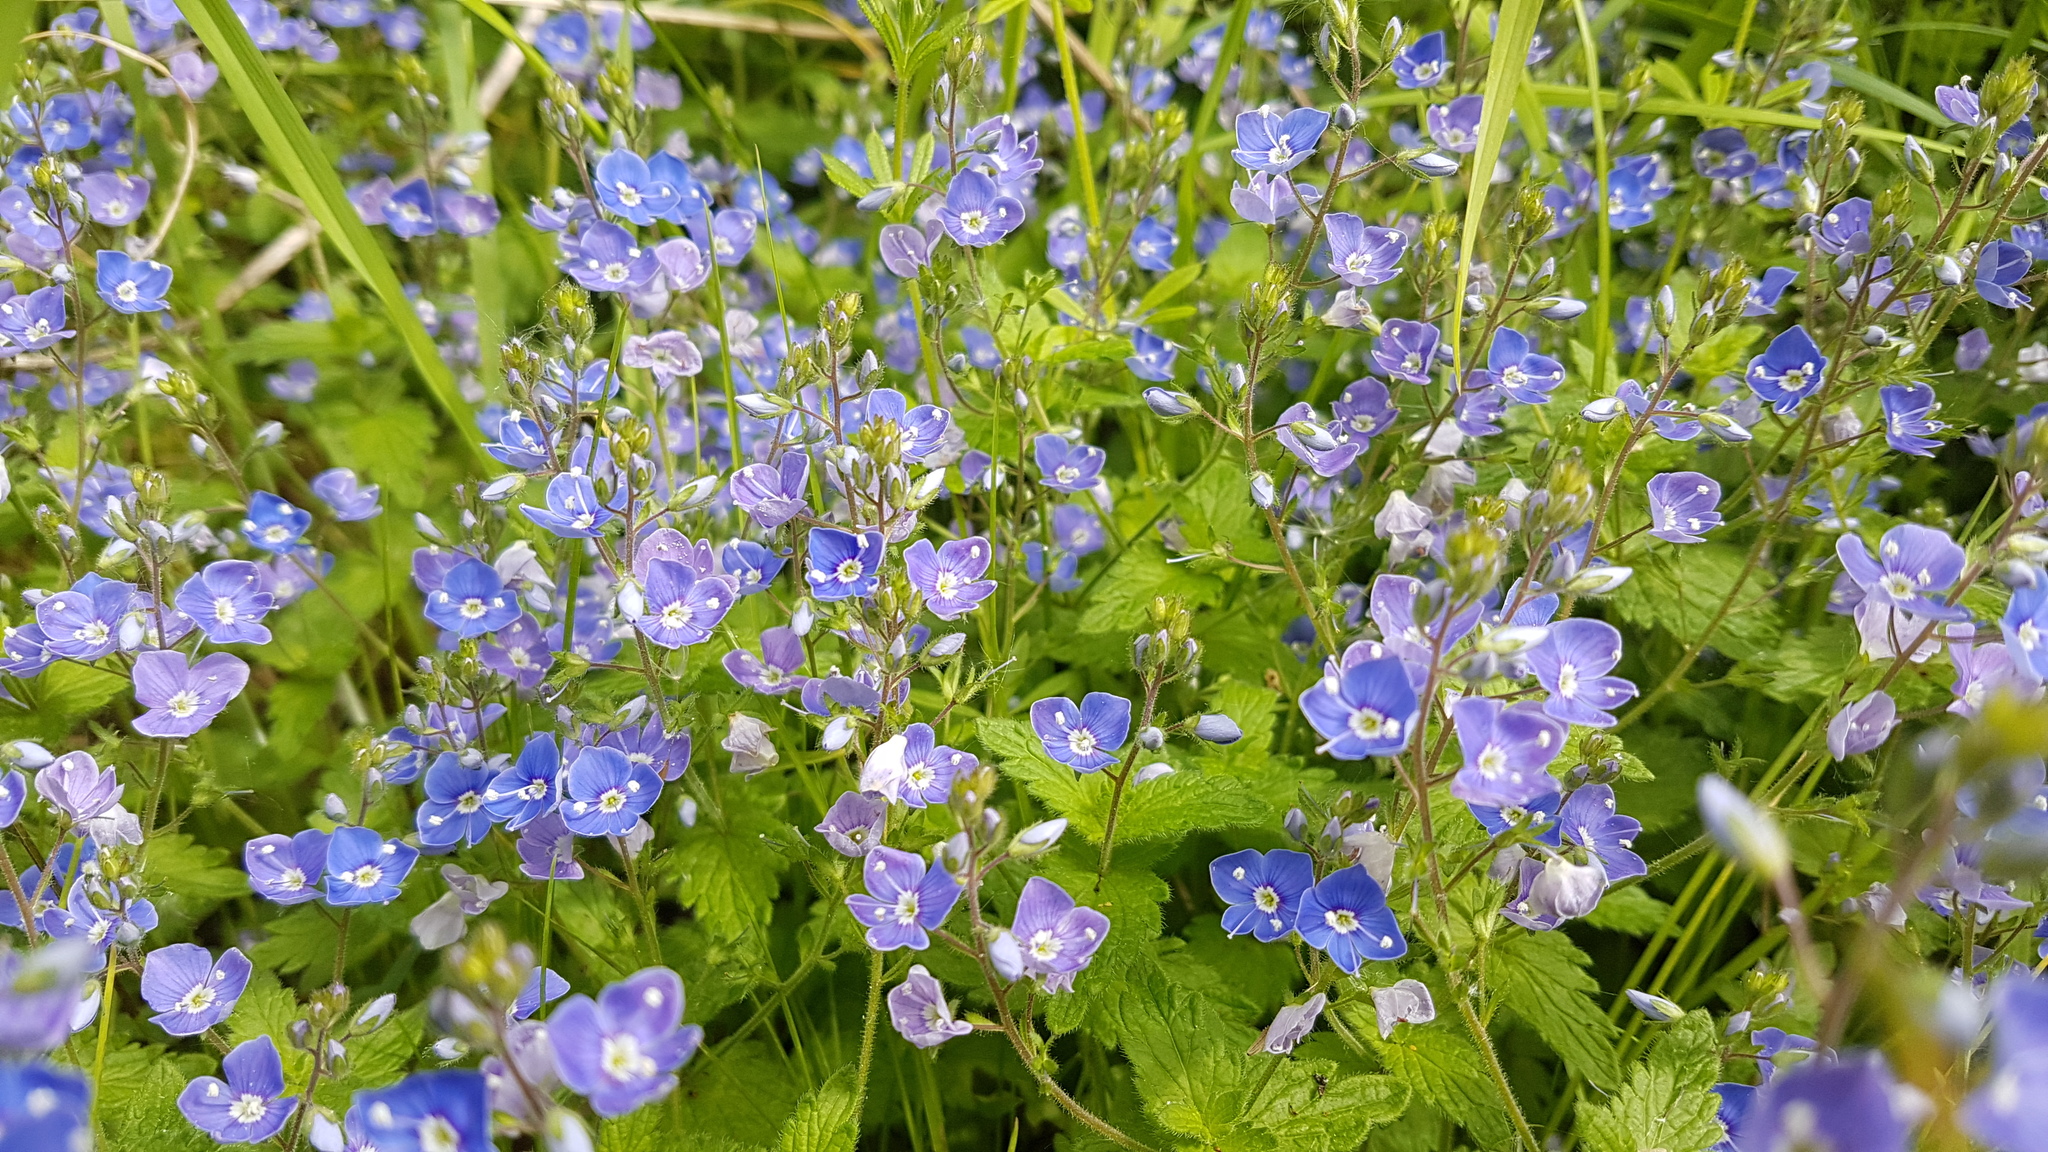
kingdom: Plantae
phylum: Tracheophyta
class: Magnoliopsida
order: Lamiales
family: Plantaginaceae
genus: Veronica
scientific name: Veronica chamaedrys
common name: Germander speedwell
